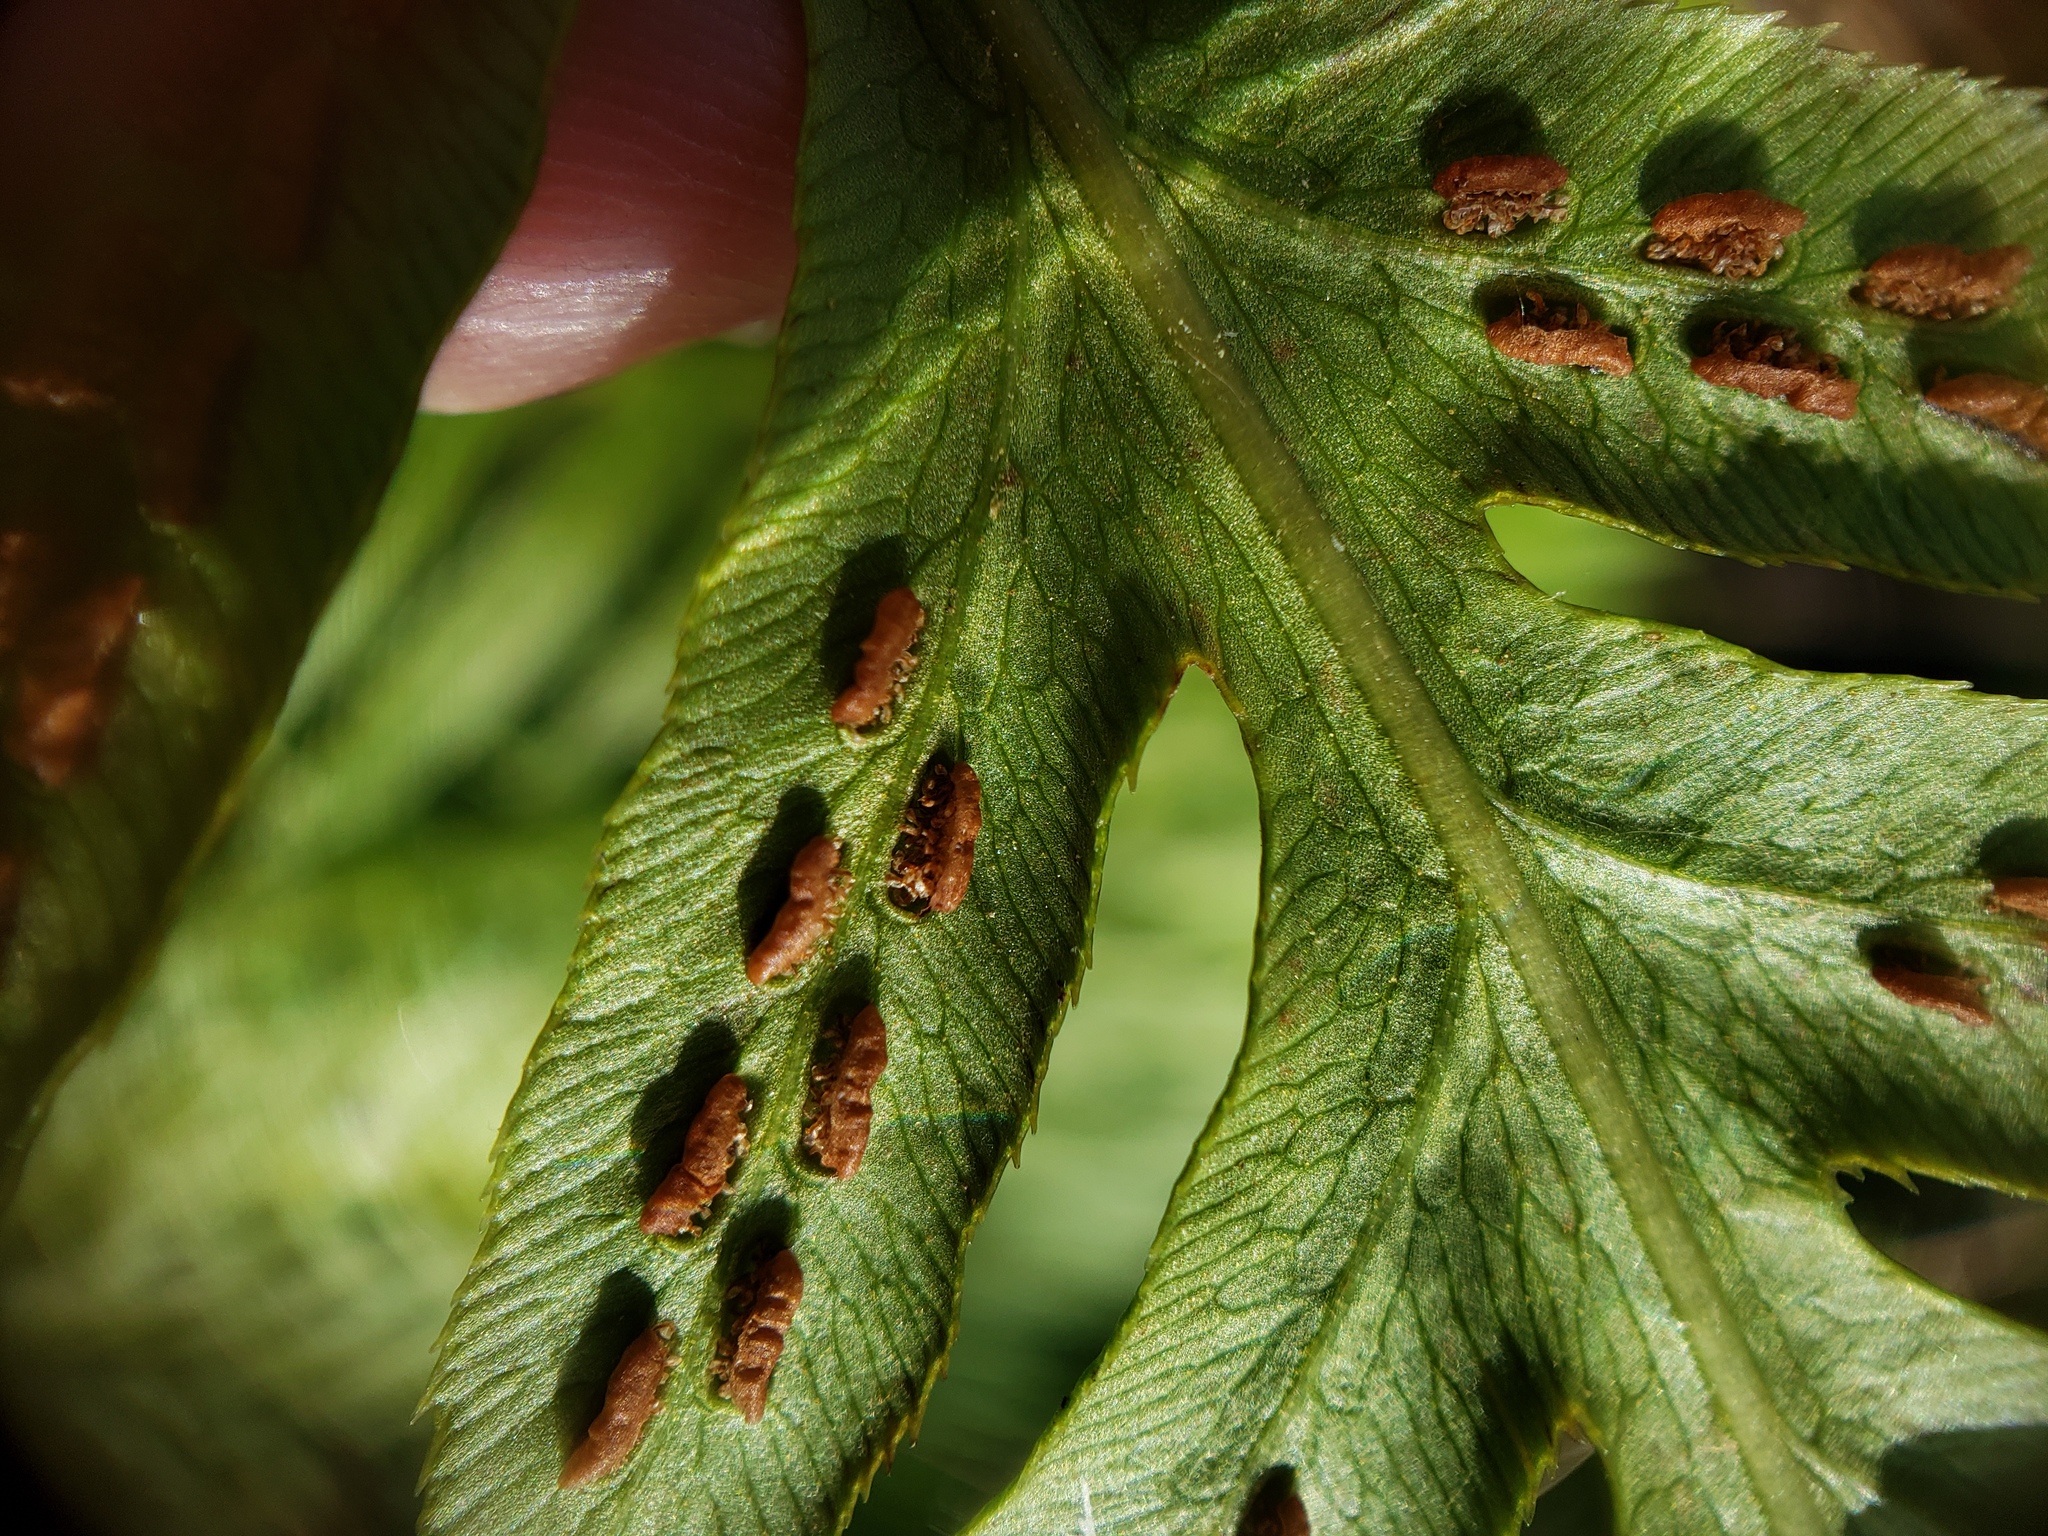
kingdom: Plantae
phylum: Tracheophyta
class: Polypodiopsida
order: Polypodiales
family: Blechnaceae
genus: Woodwardia
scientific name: Woodwardia fimbriata
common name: Giant chain fern
